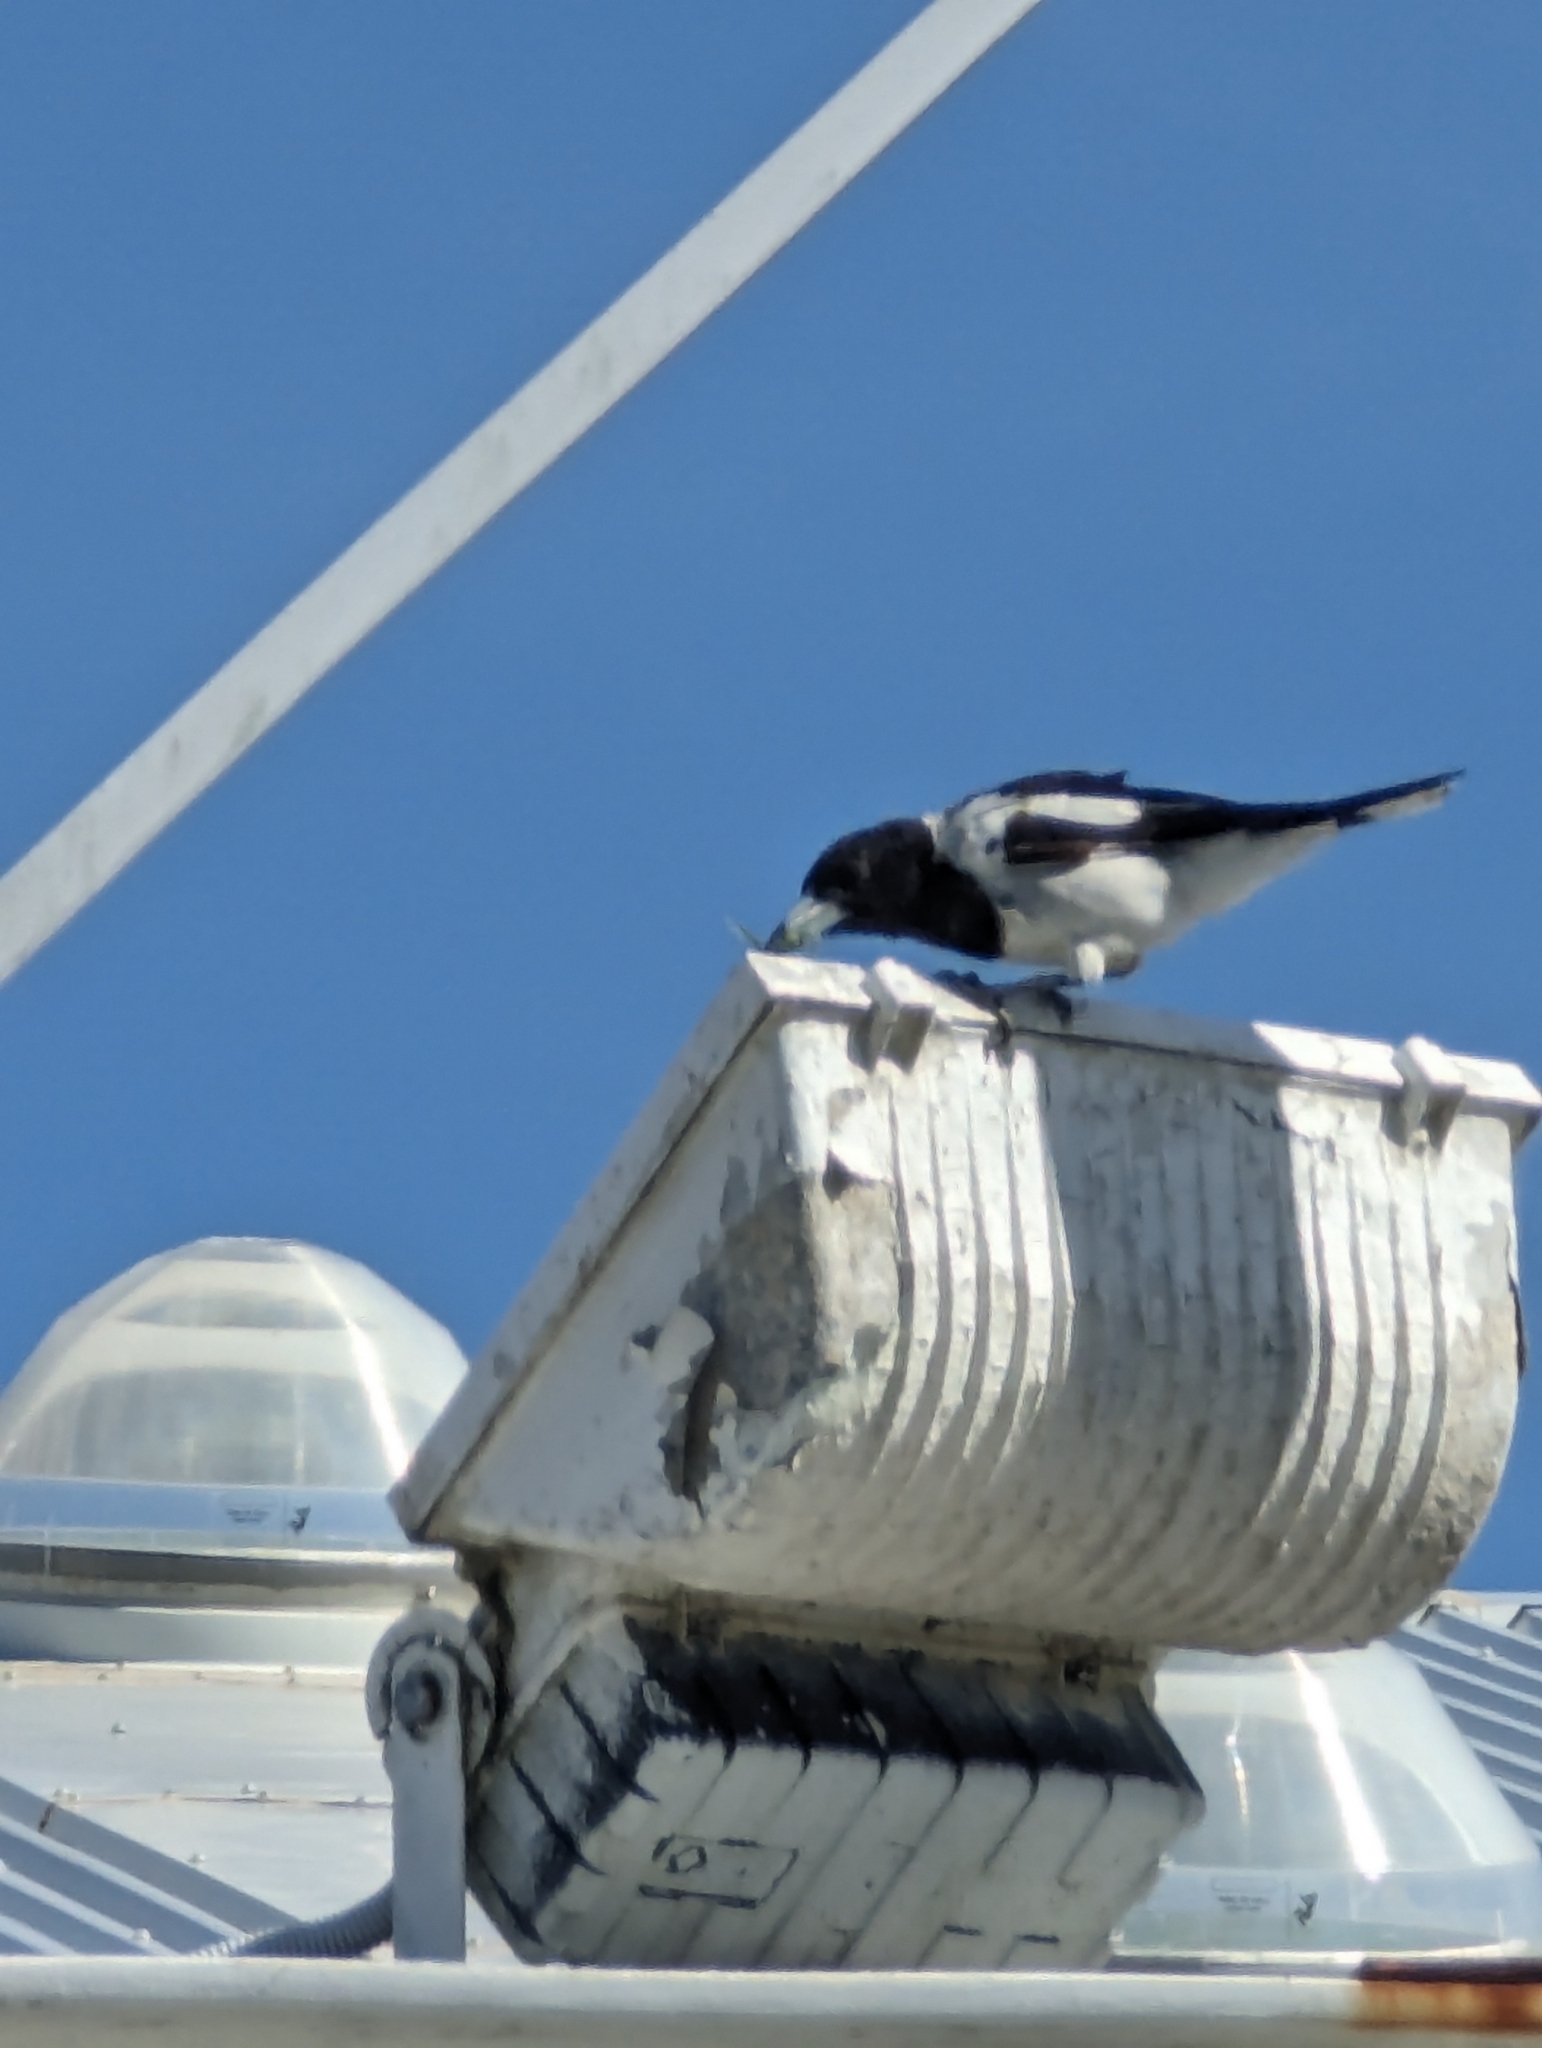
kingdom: Animalia
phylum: Chordata
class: Aves
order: Passeriformes
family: Cracticidae
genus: Cracticus
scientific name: Cracticus nigrogularis
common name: Pied butcherbird
